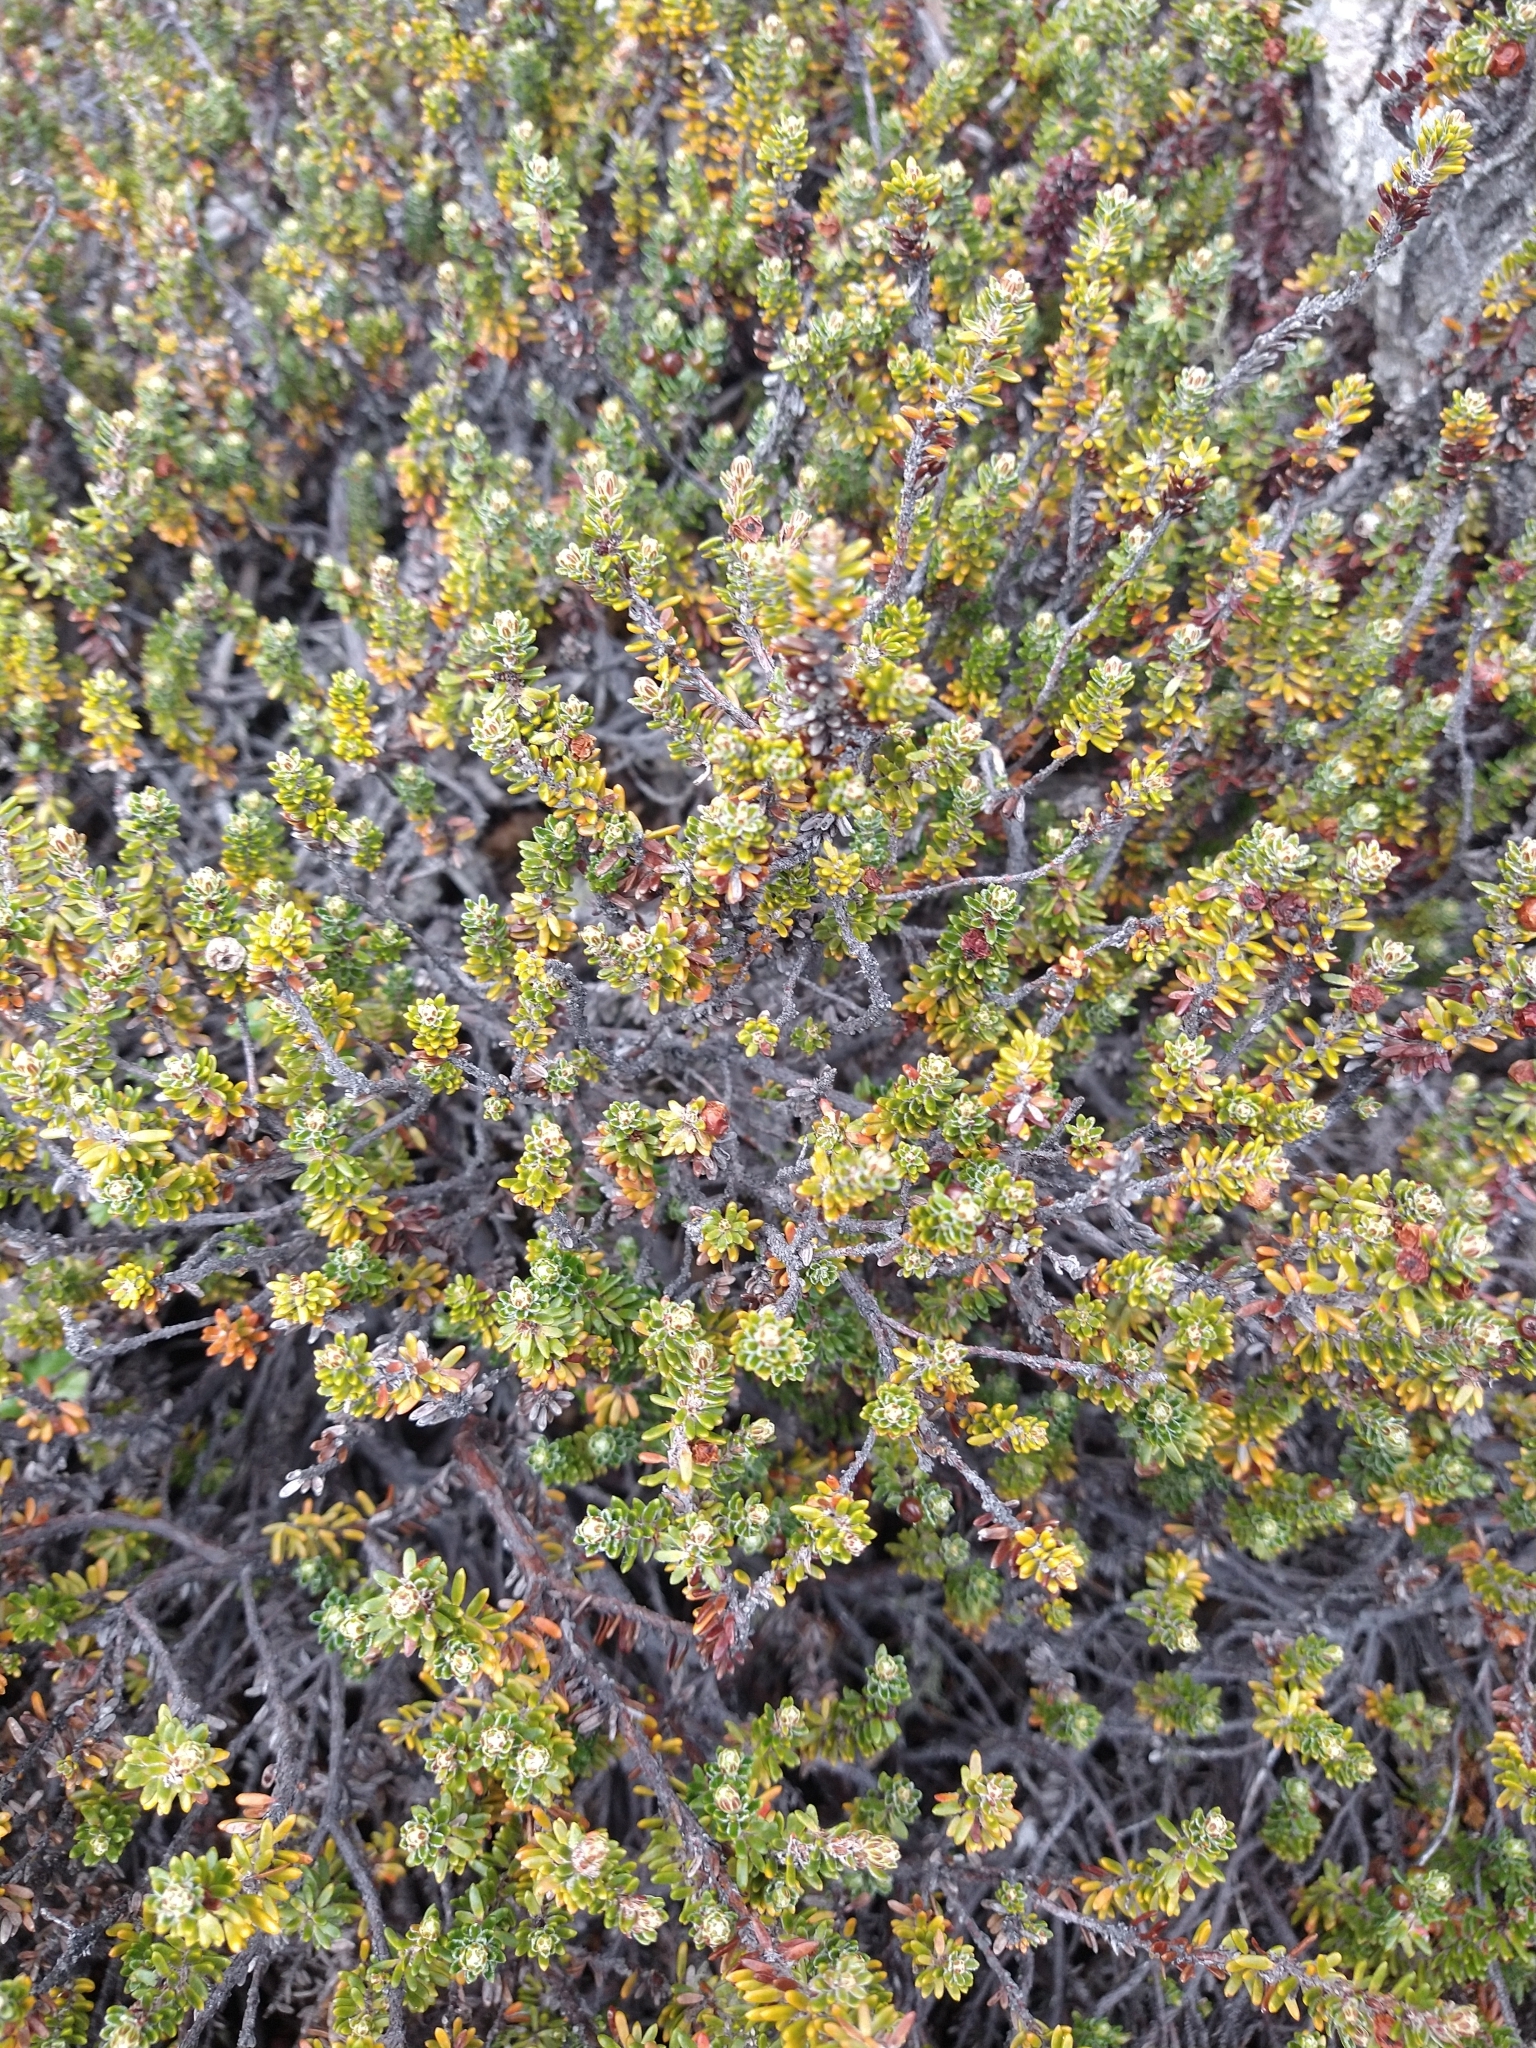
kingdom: Plantae
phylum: Tracheophyta
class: Magnoliopsida
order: Ericales
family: Ericaceae
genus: Empetrum
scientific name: Empetrum rubrum
